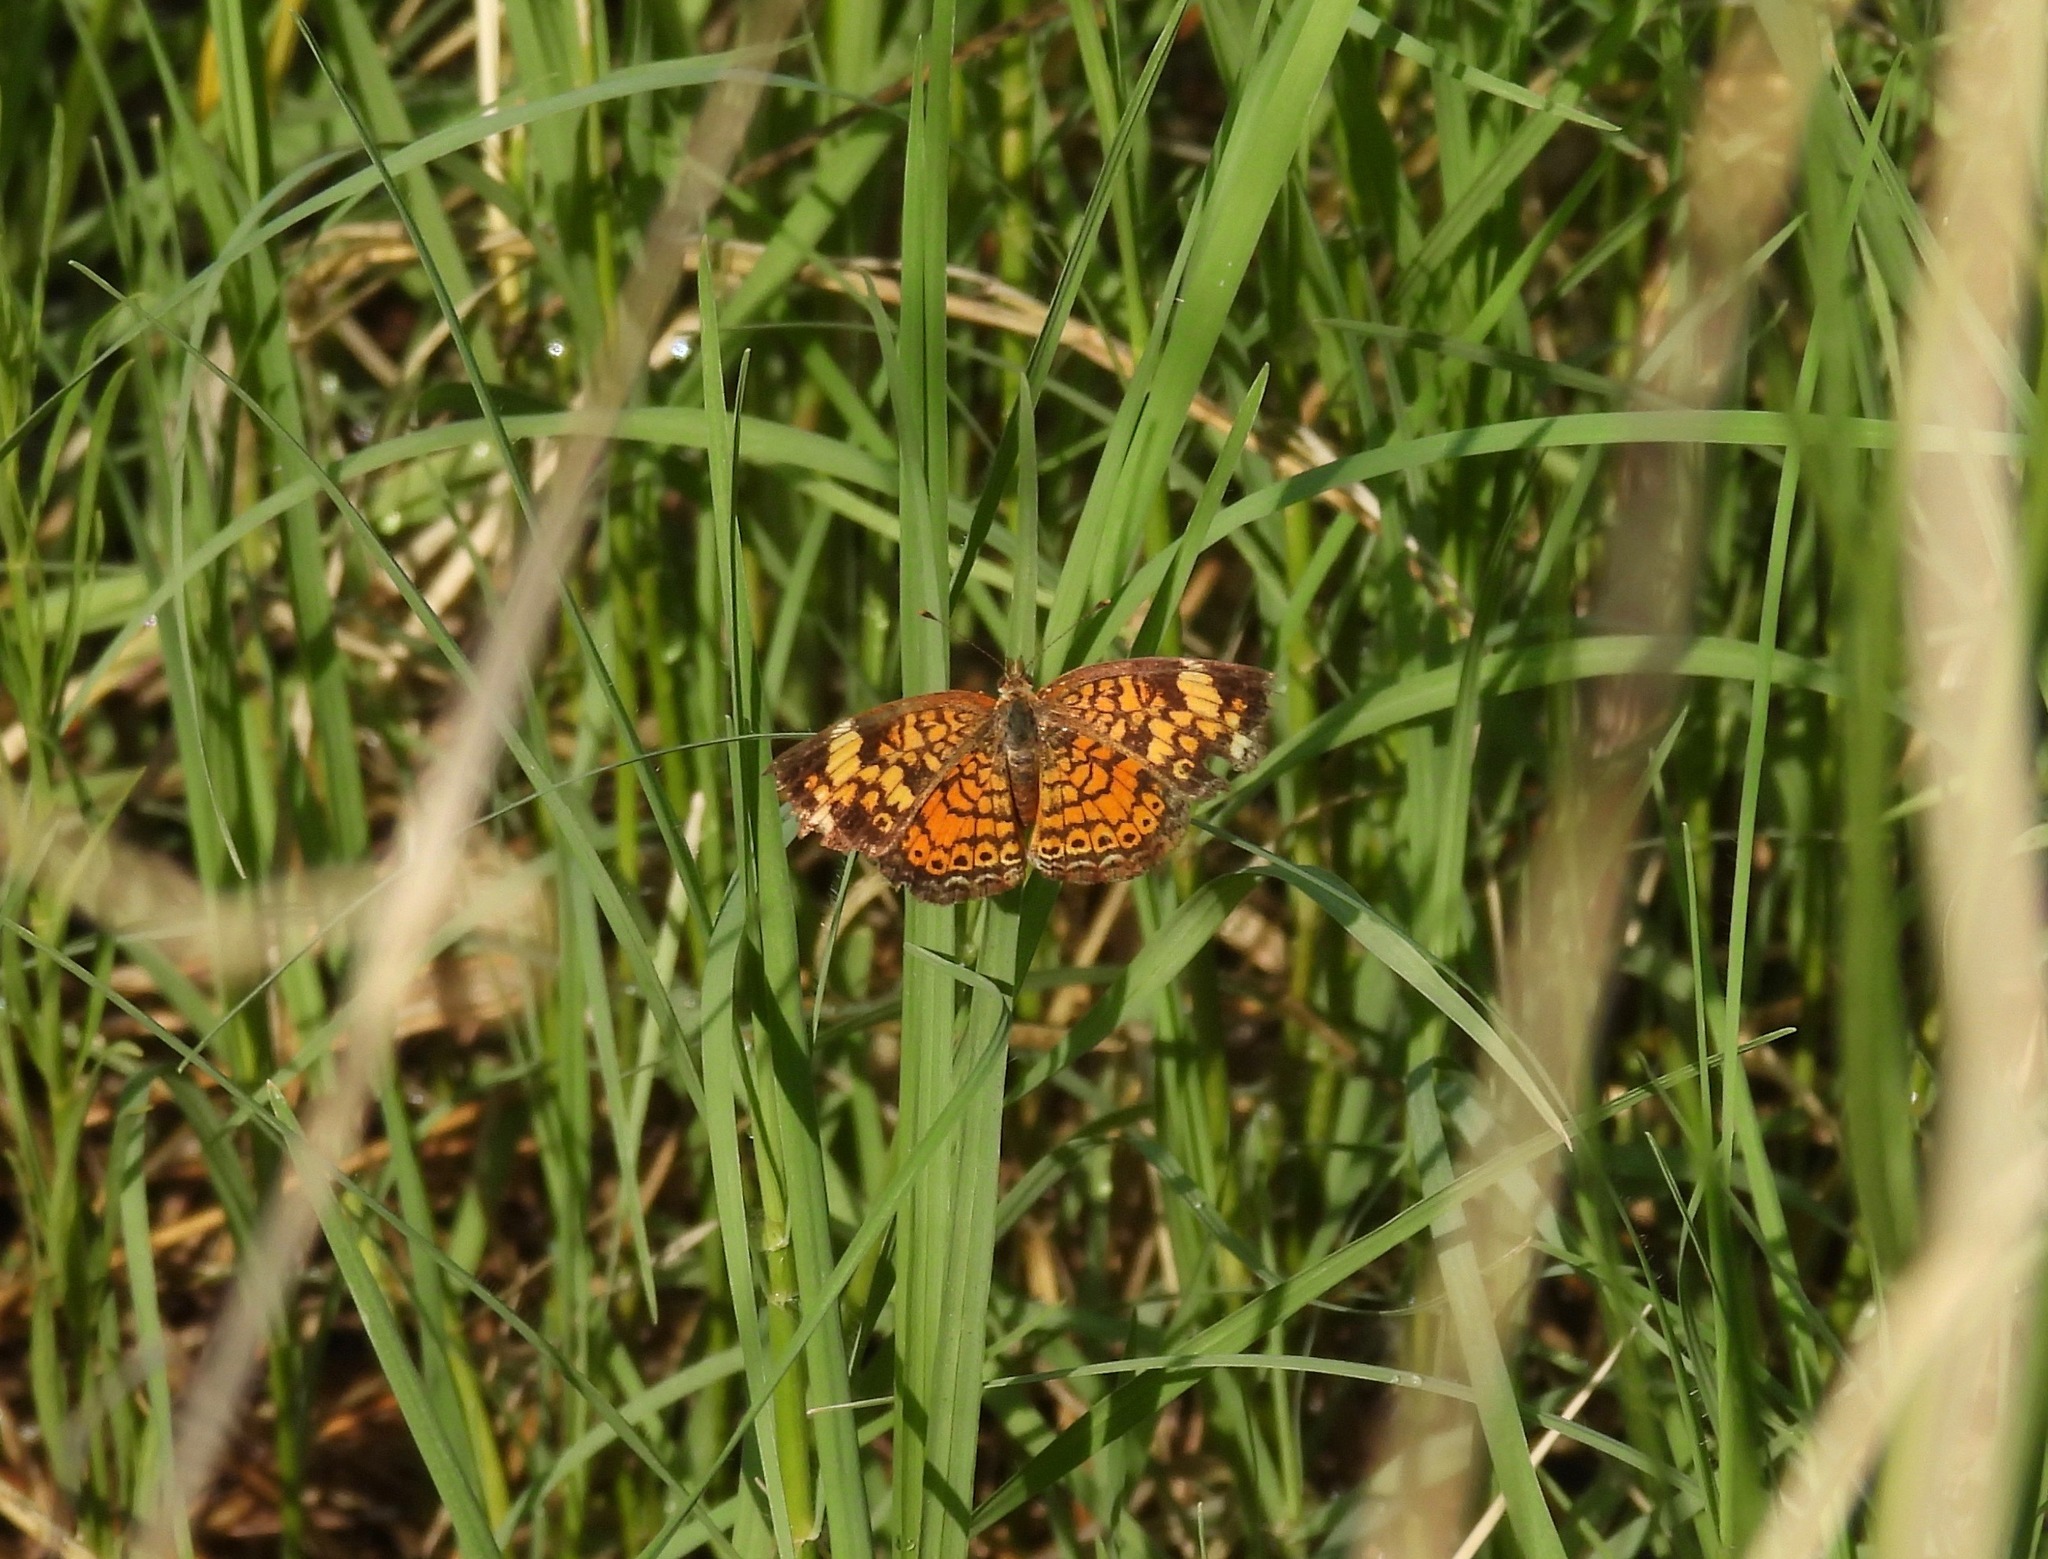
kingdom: Animalia
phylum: Arthropoda
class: Insecta
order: Lepidoptera
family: Nymphalidae
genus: Phyciodes
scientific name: Phyciodes tharos
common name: Pearl crescent
